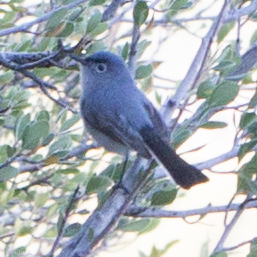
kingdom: Animalia
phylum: Chordata
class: Aves
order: Passeriformes
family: Polioptilidae
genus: Polioptila
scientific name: Polioptila caerulea
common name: Blue-gray gnatcatcher
